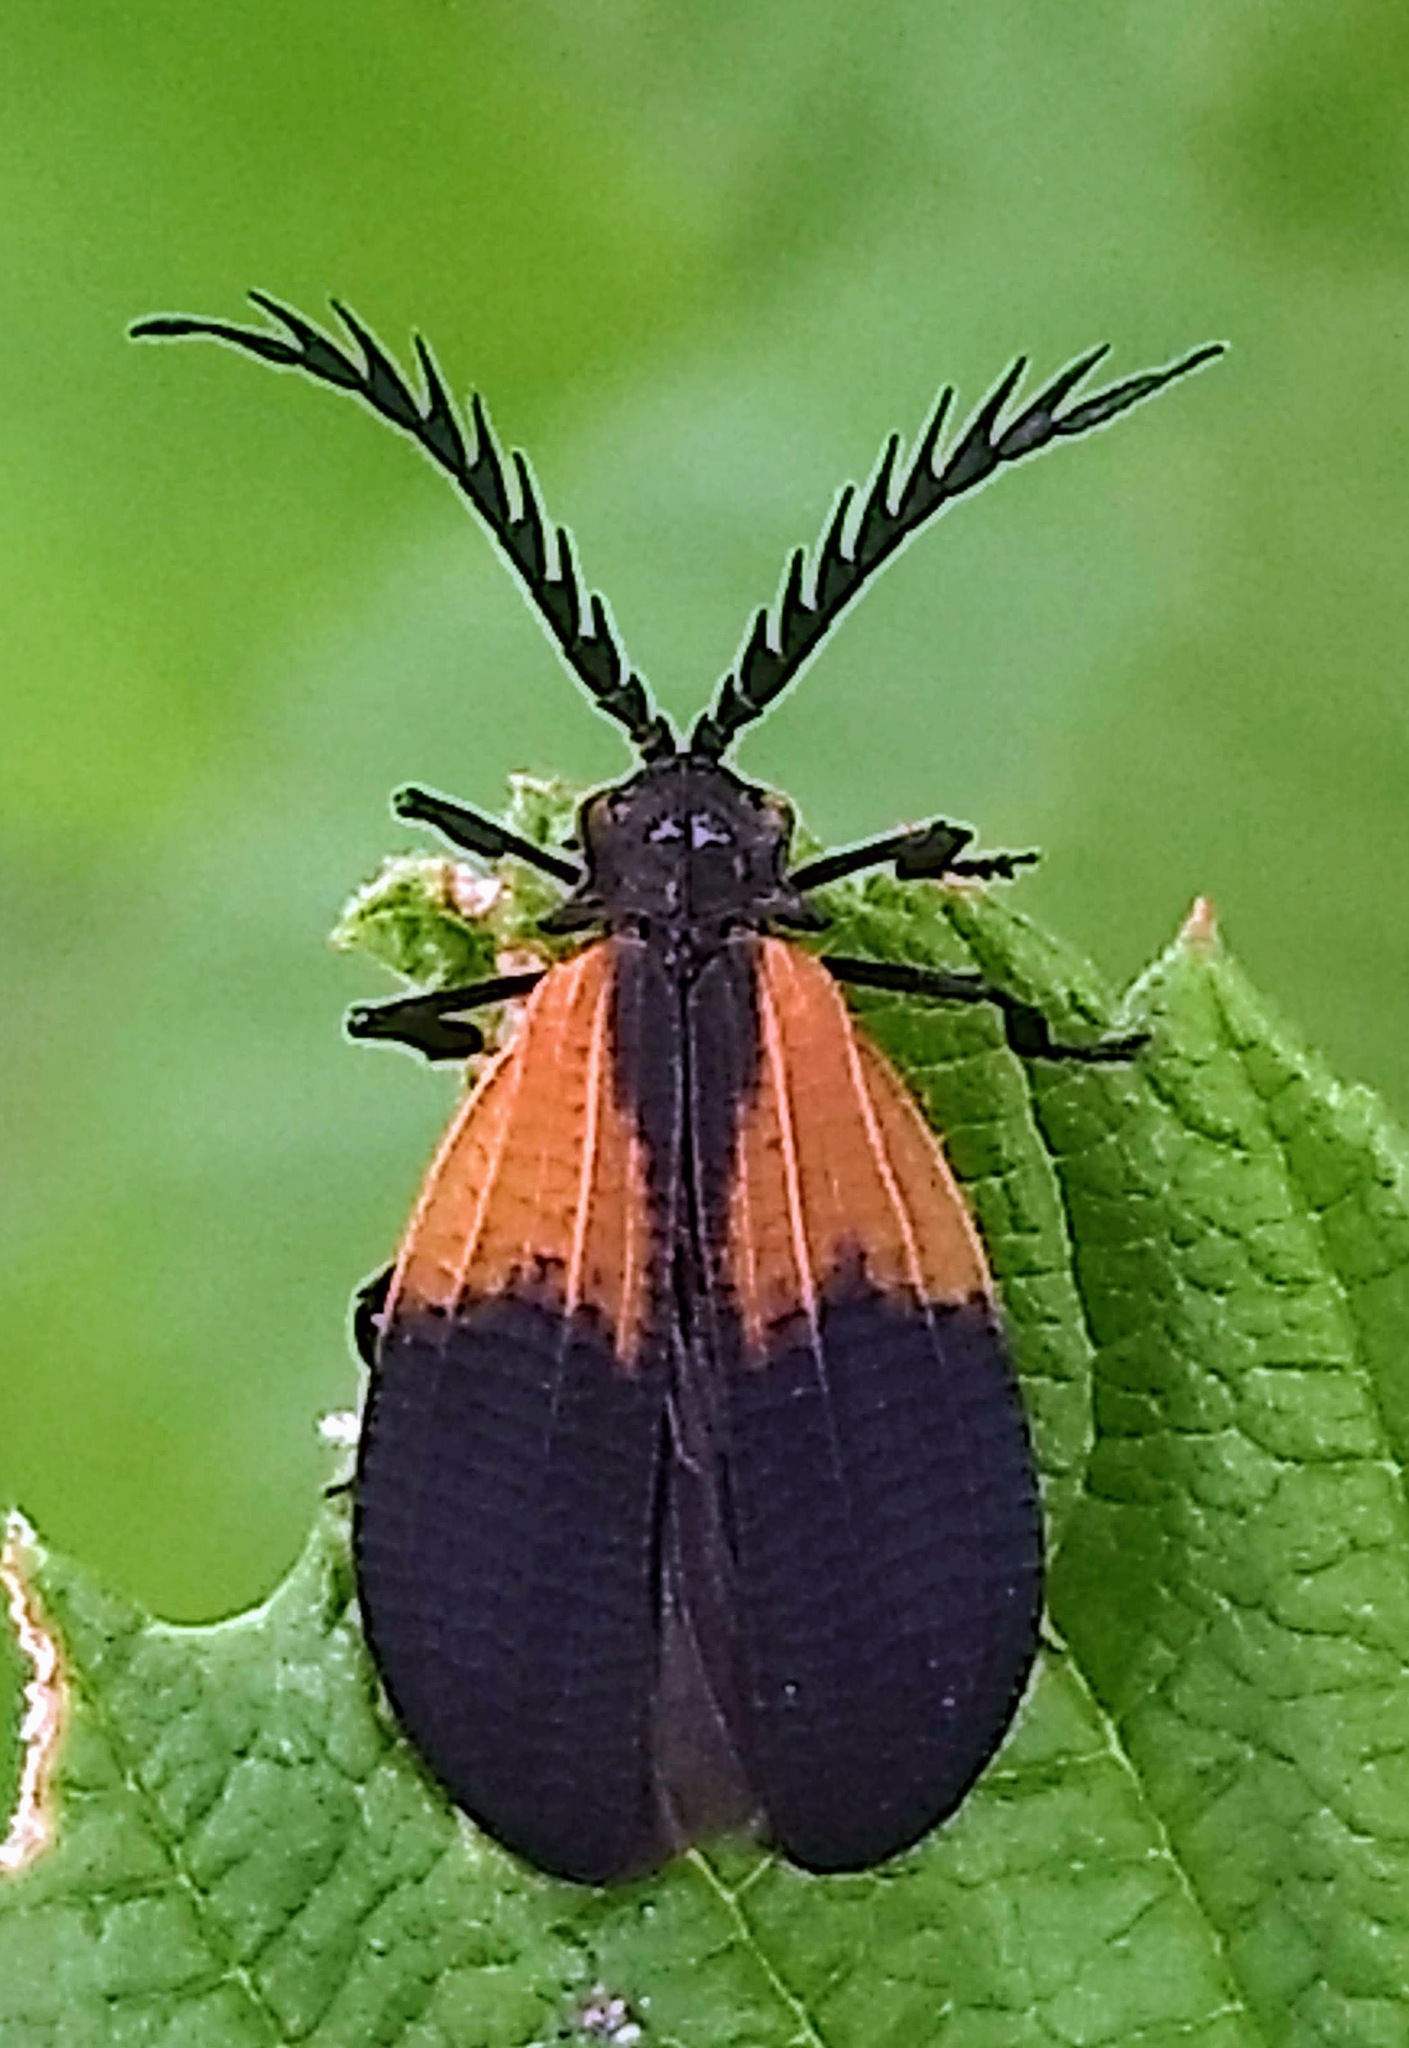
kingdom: Animalia
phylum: Arthropoda
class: Insecta
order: Coleoptera
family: Lycidae
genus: Caenia
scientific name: Caenia dimidiata
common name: Terminal net-winged beetle
